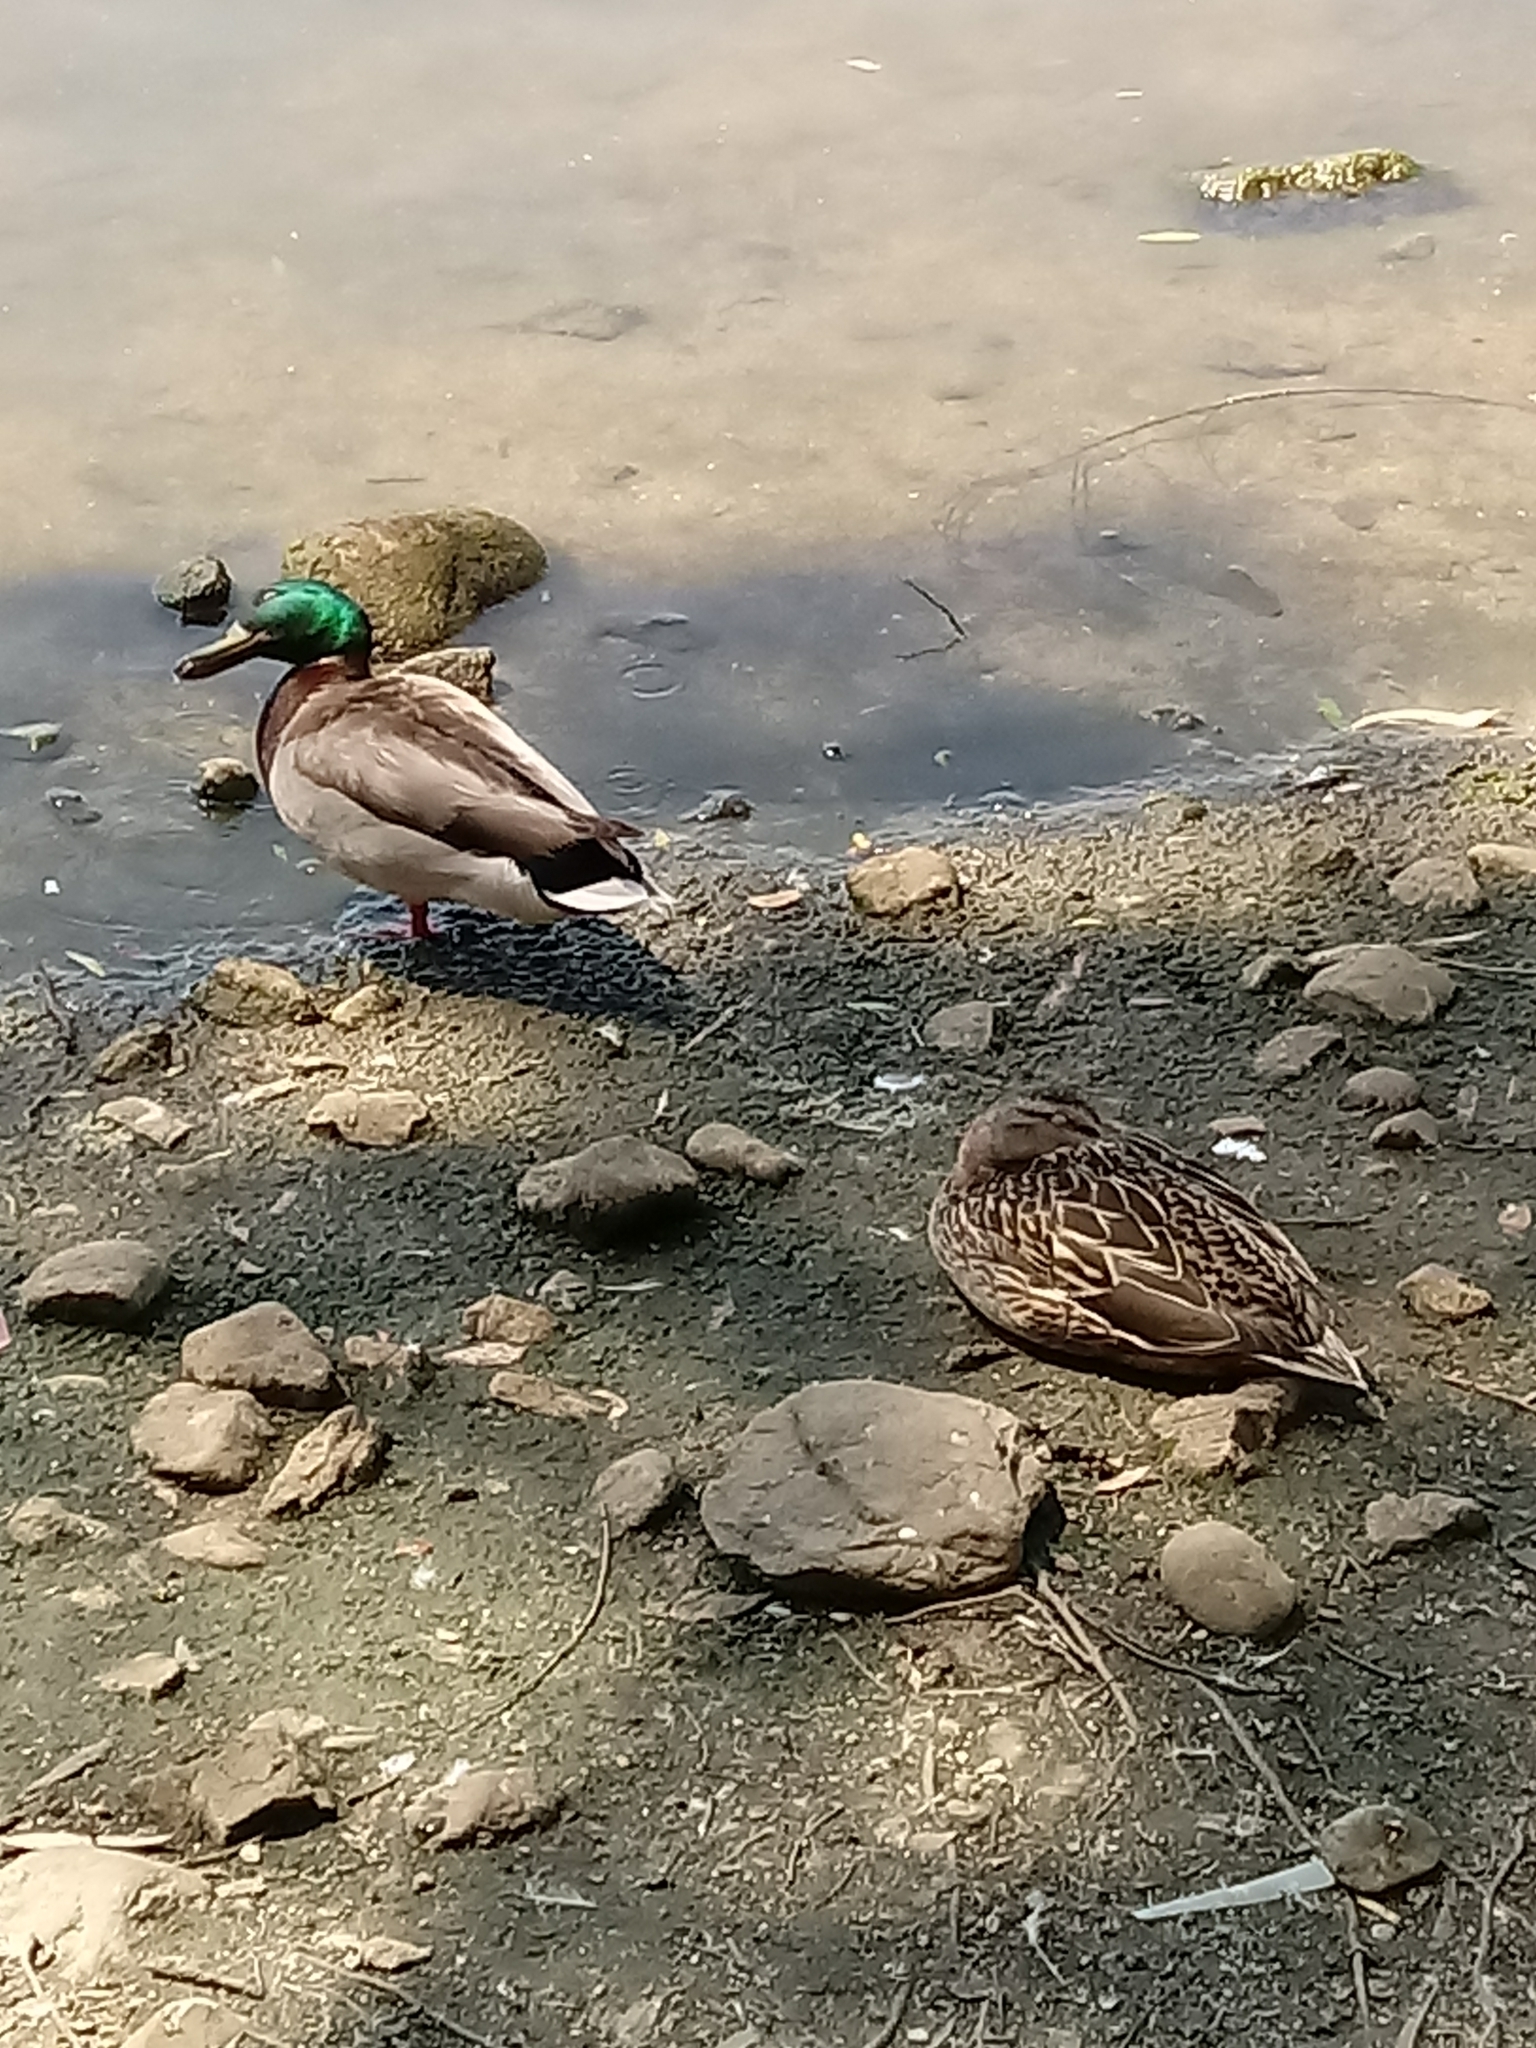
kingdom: Animalia
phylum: Chordata
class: Aves
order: Anseriformes
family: Anatidae
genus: Anas
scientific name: Anas platyrhynchos
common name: Mallard
